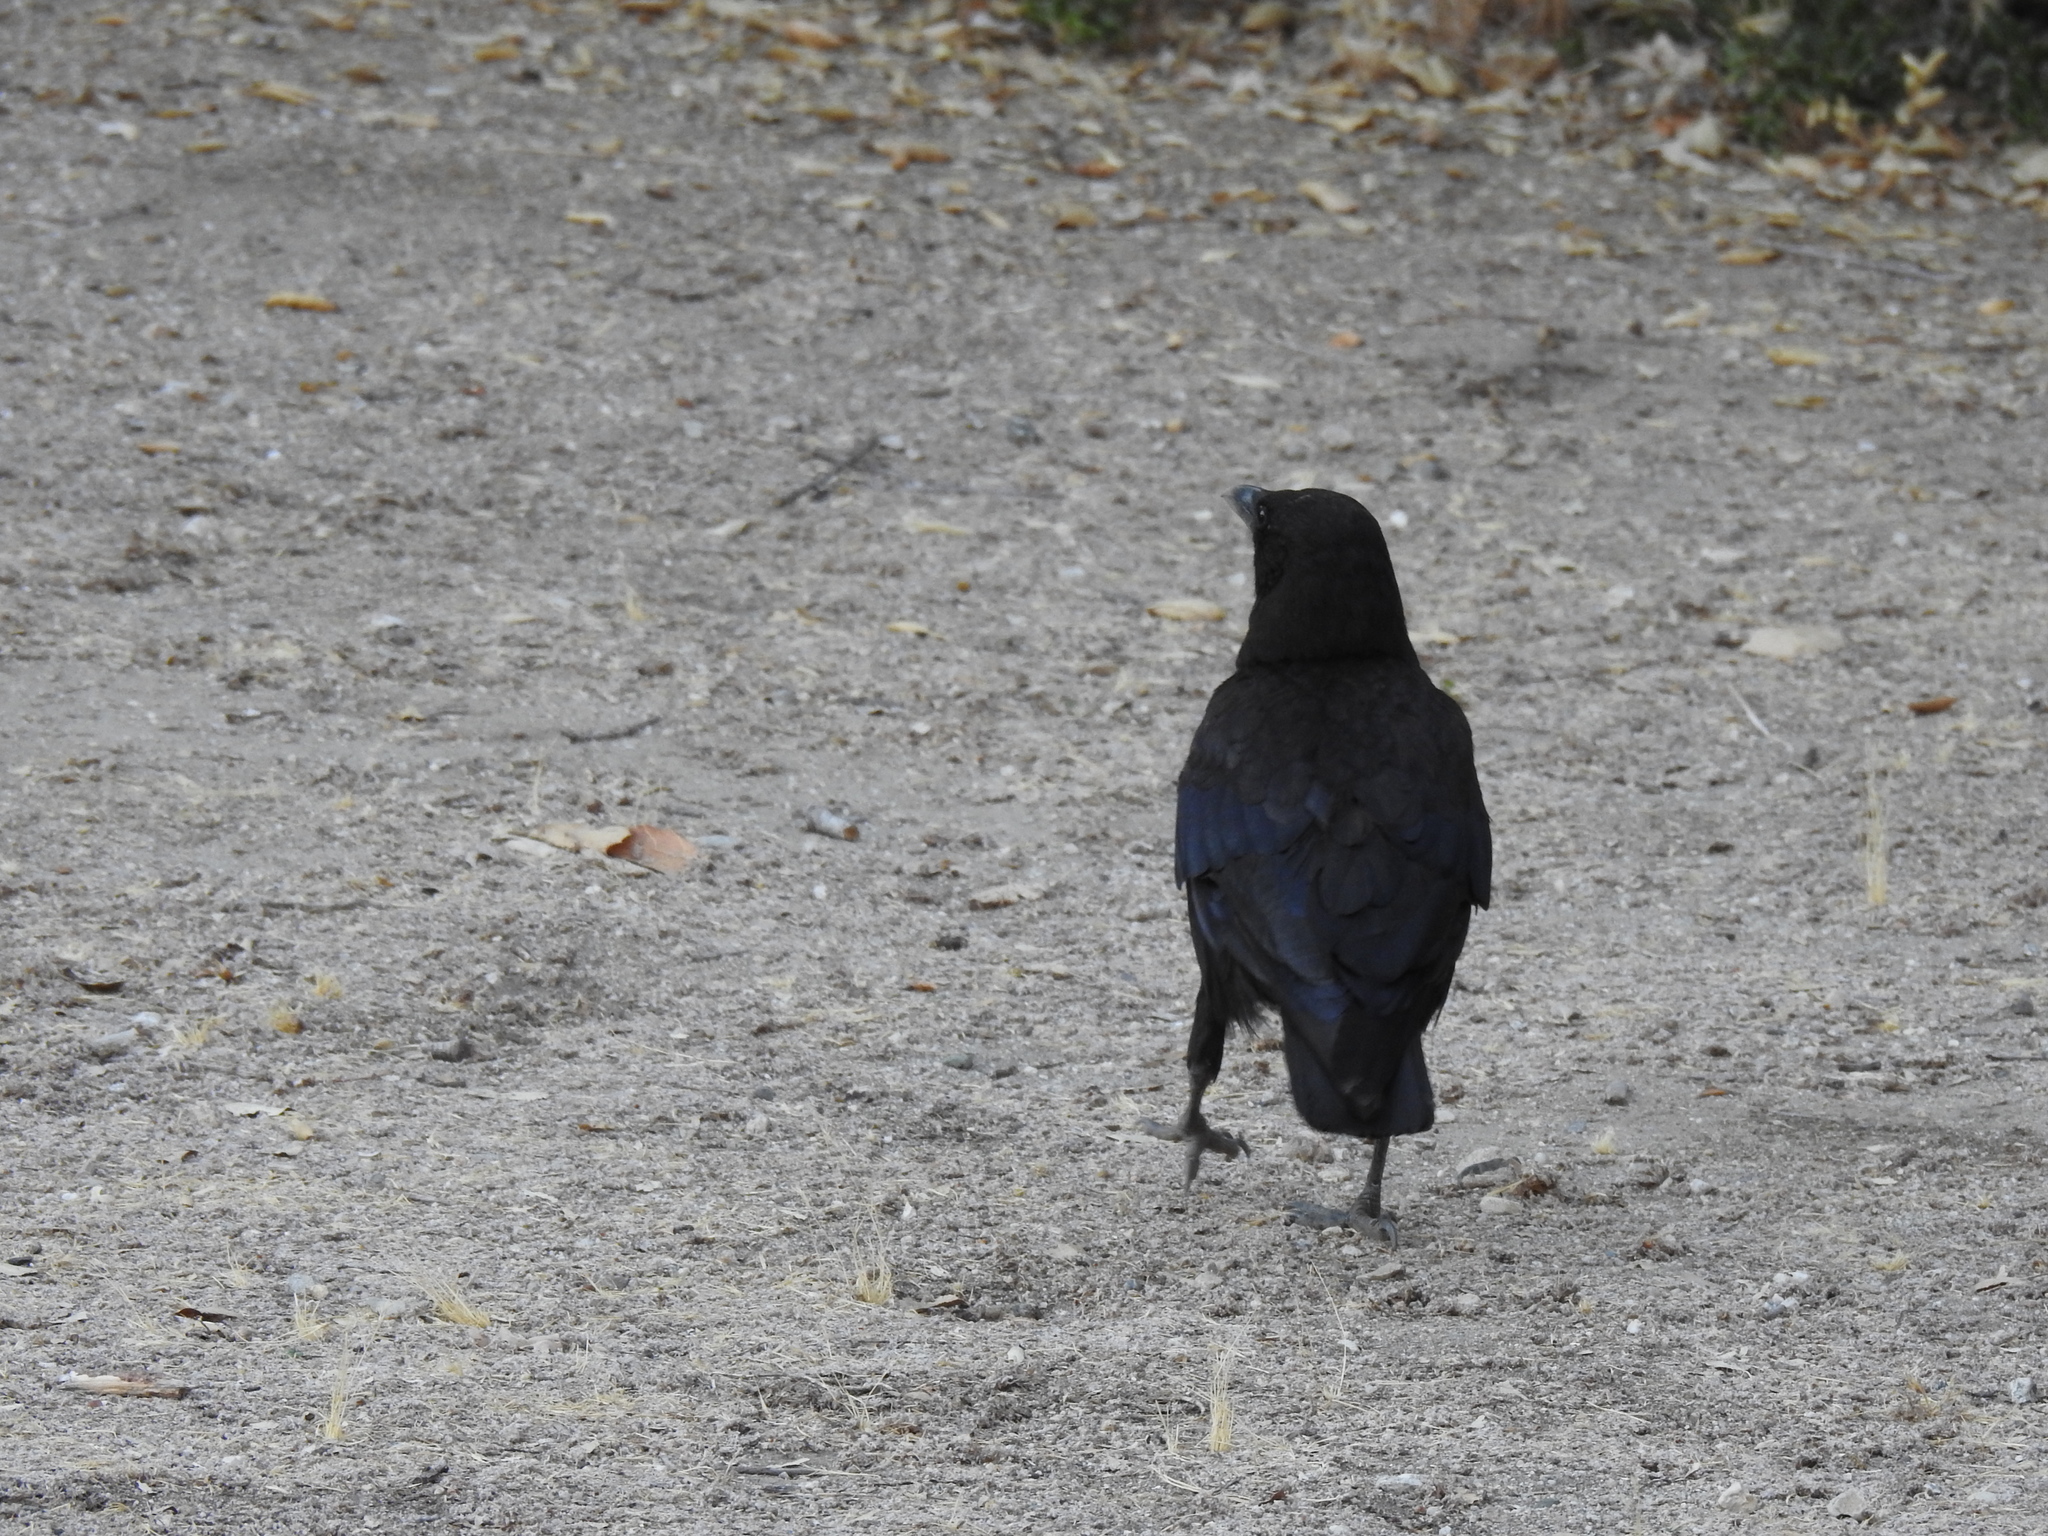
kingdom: Animalia
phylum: Chordata
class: Aves
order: Passeriformes
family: Corvidae
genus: Corvus
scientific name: Corvus brachyrhynchos
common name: American crow
